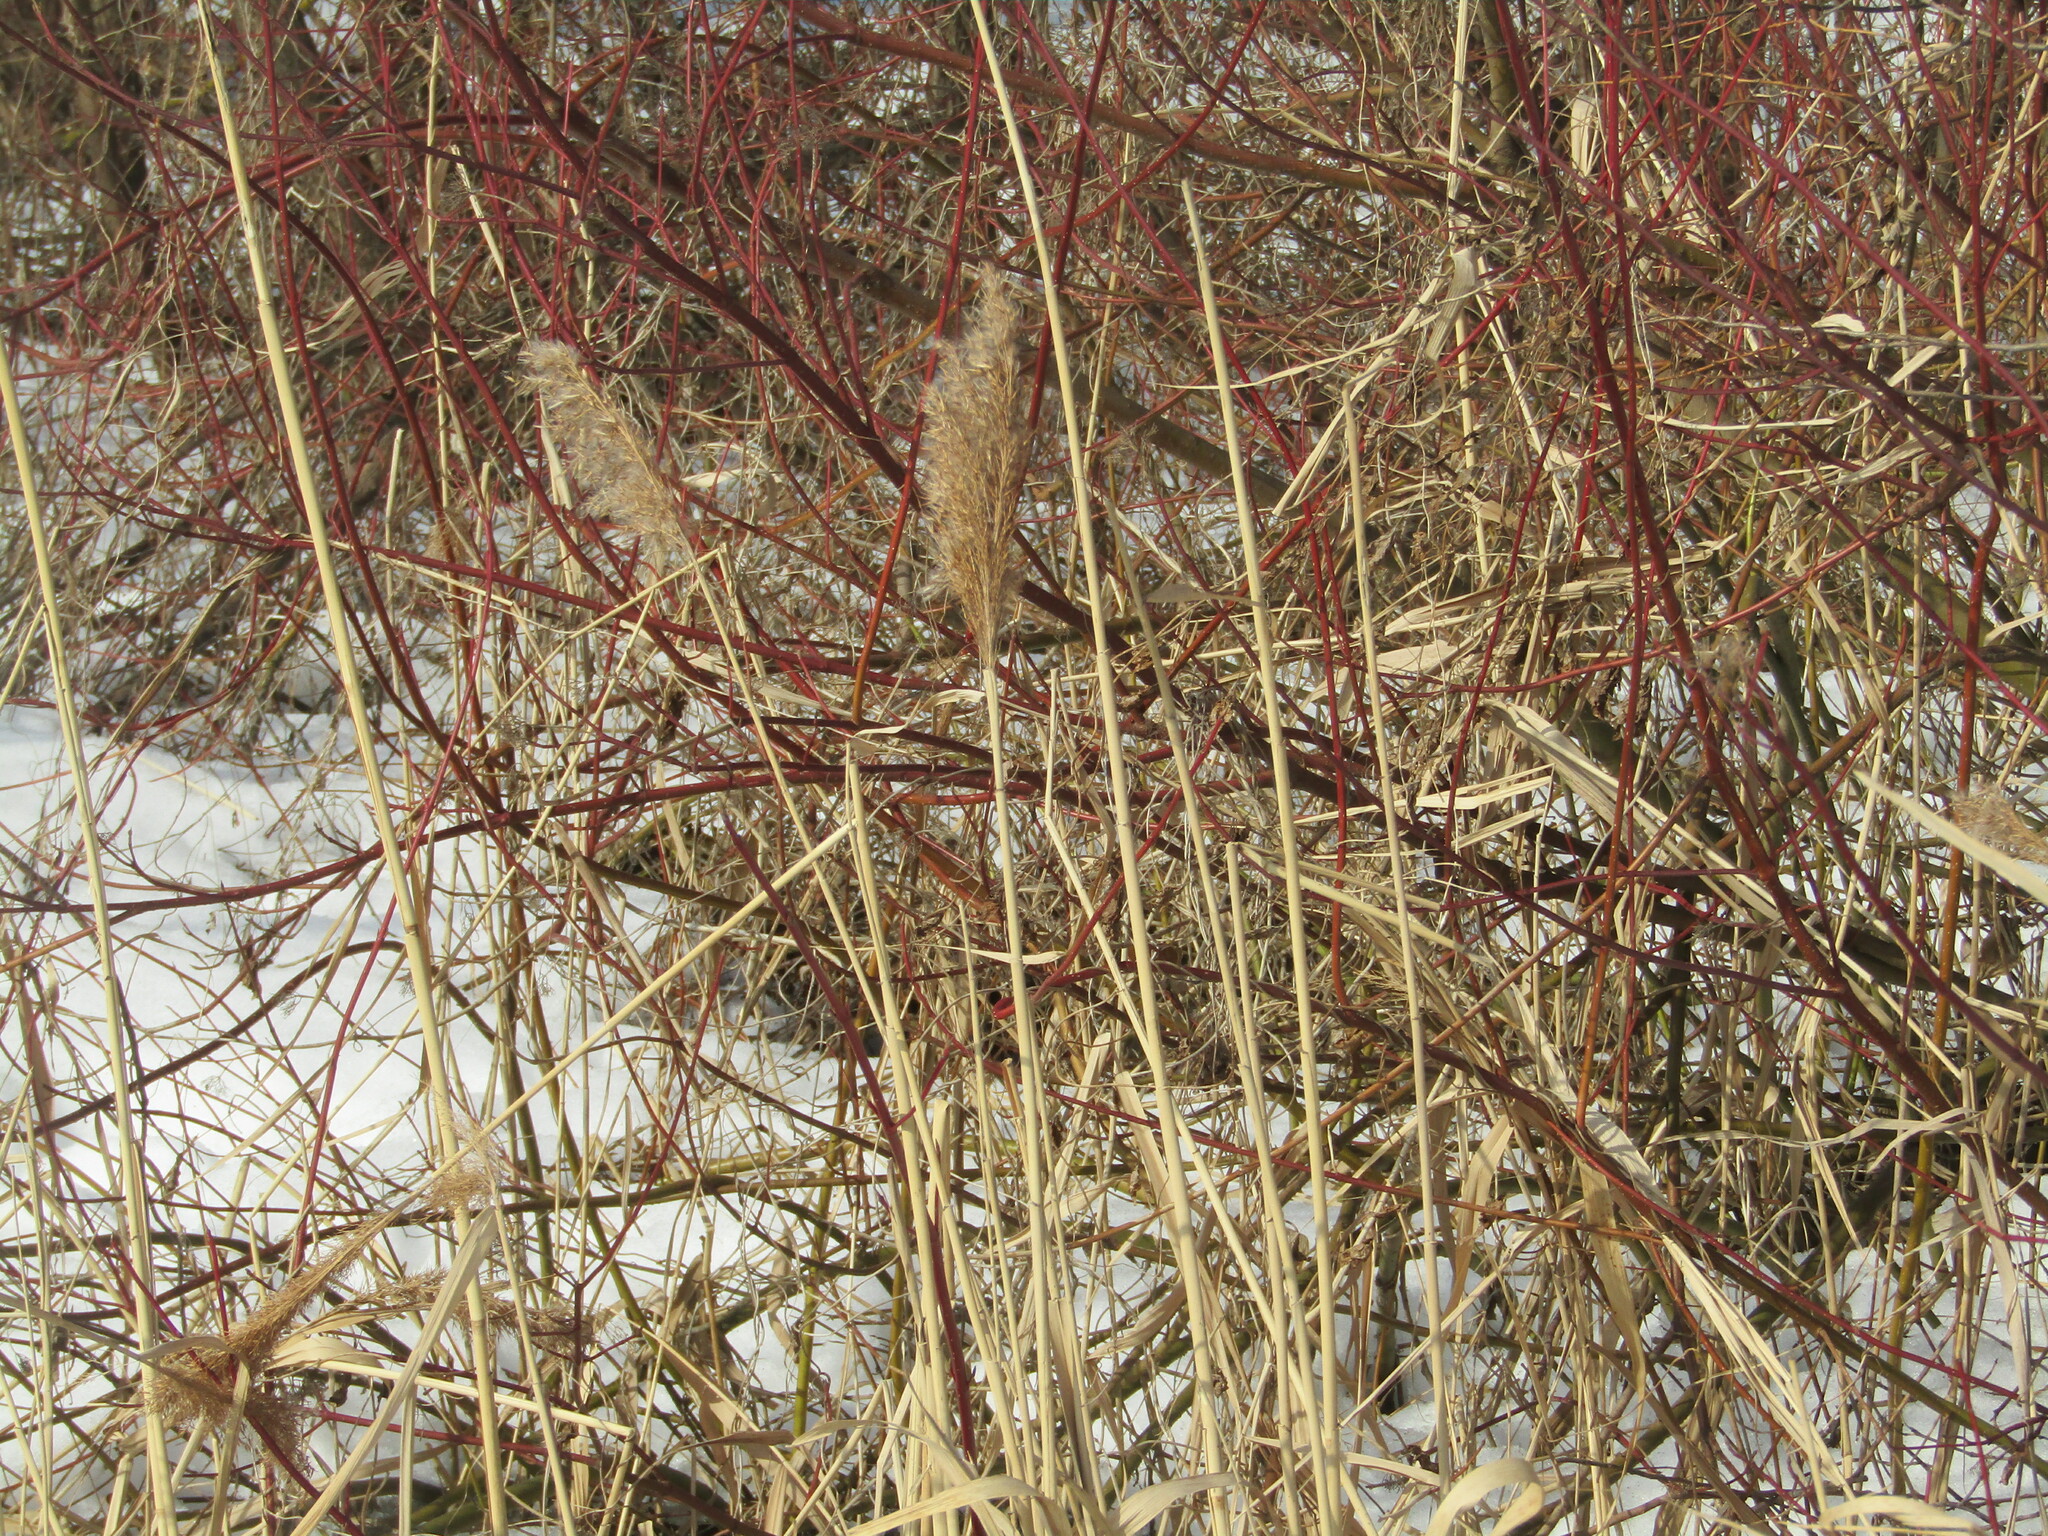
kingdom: Plantae
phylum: Tracheophyta
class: Liliopsida
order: Poales
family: Poaceae
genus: Phragmites
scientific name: Phragmites australis
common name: Common reed
